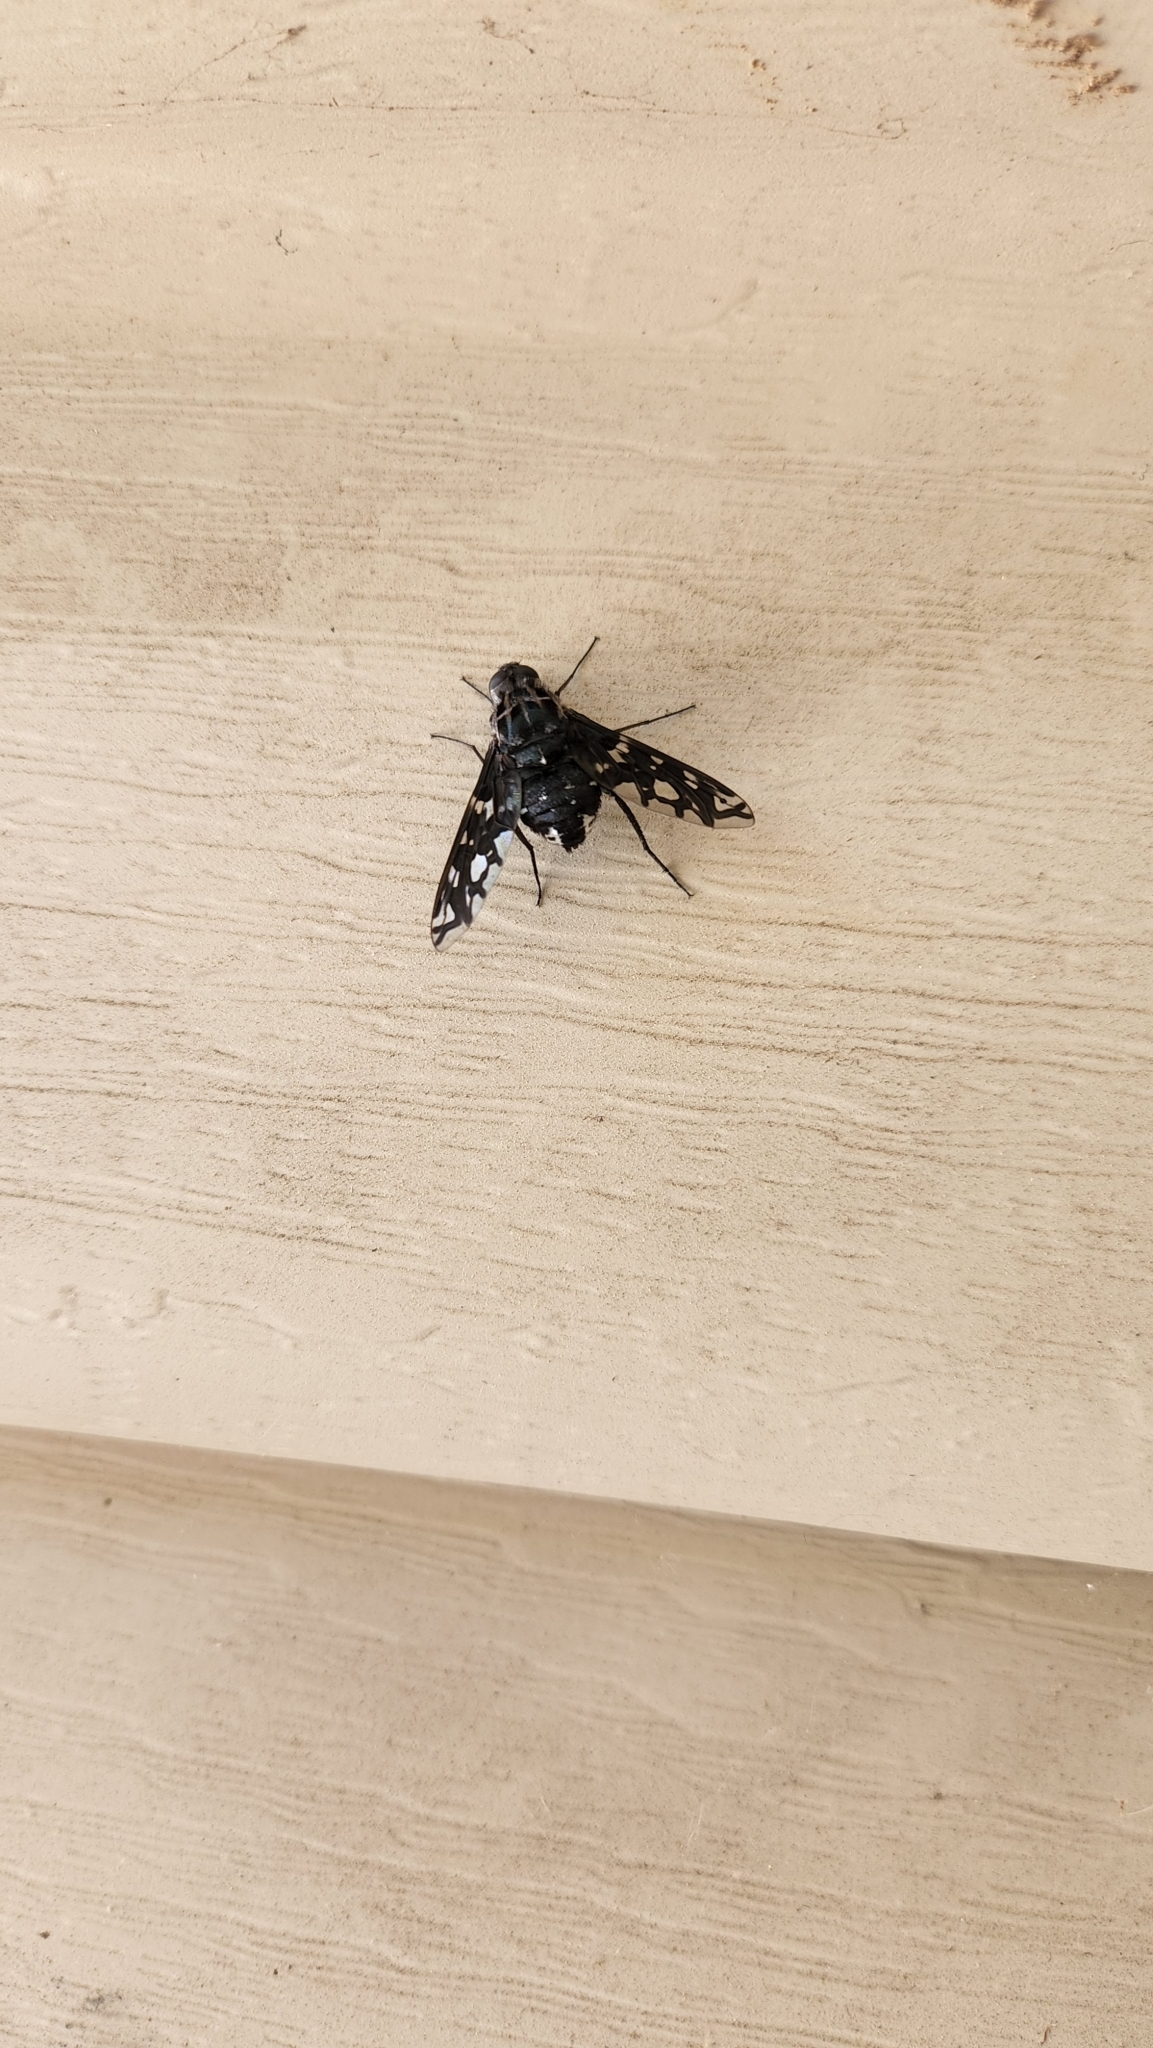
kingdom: Animalia
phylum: Arthropoda
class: Insecta
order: Diptera
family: Bombyliidae
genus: Xenox
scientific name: Xenox tigrinus
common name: Tiger bee fly
